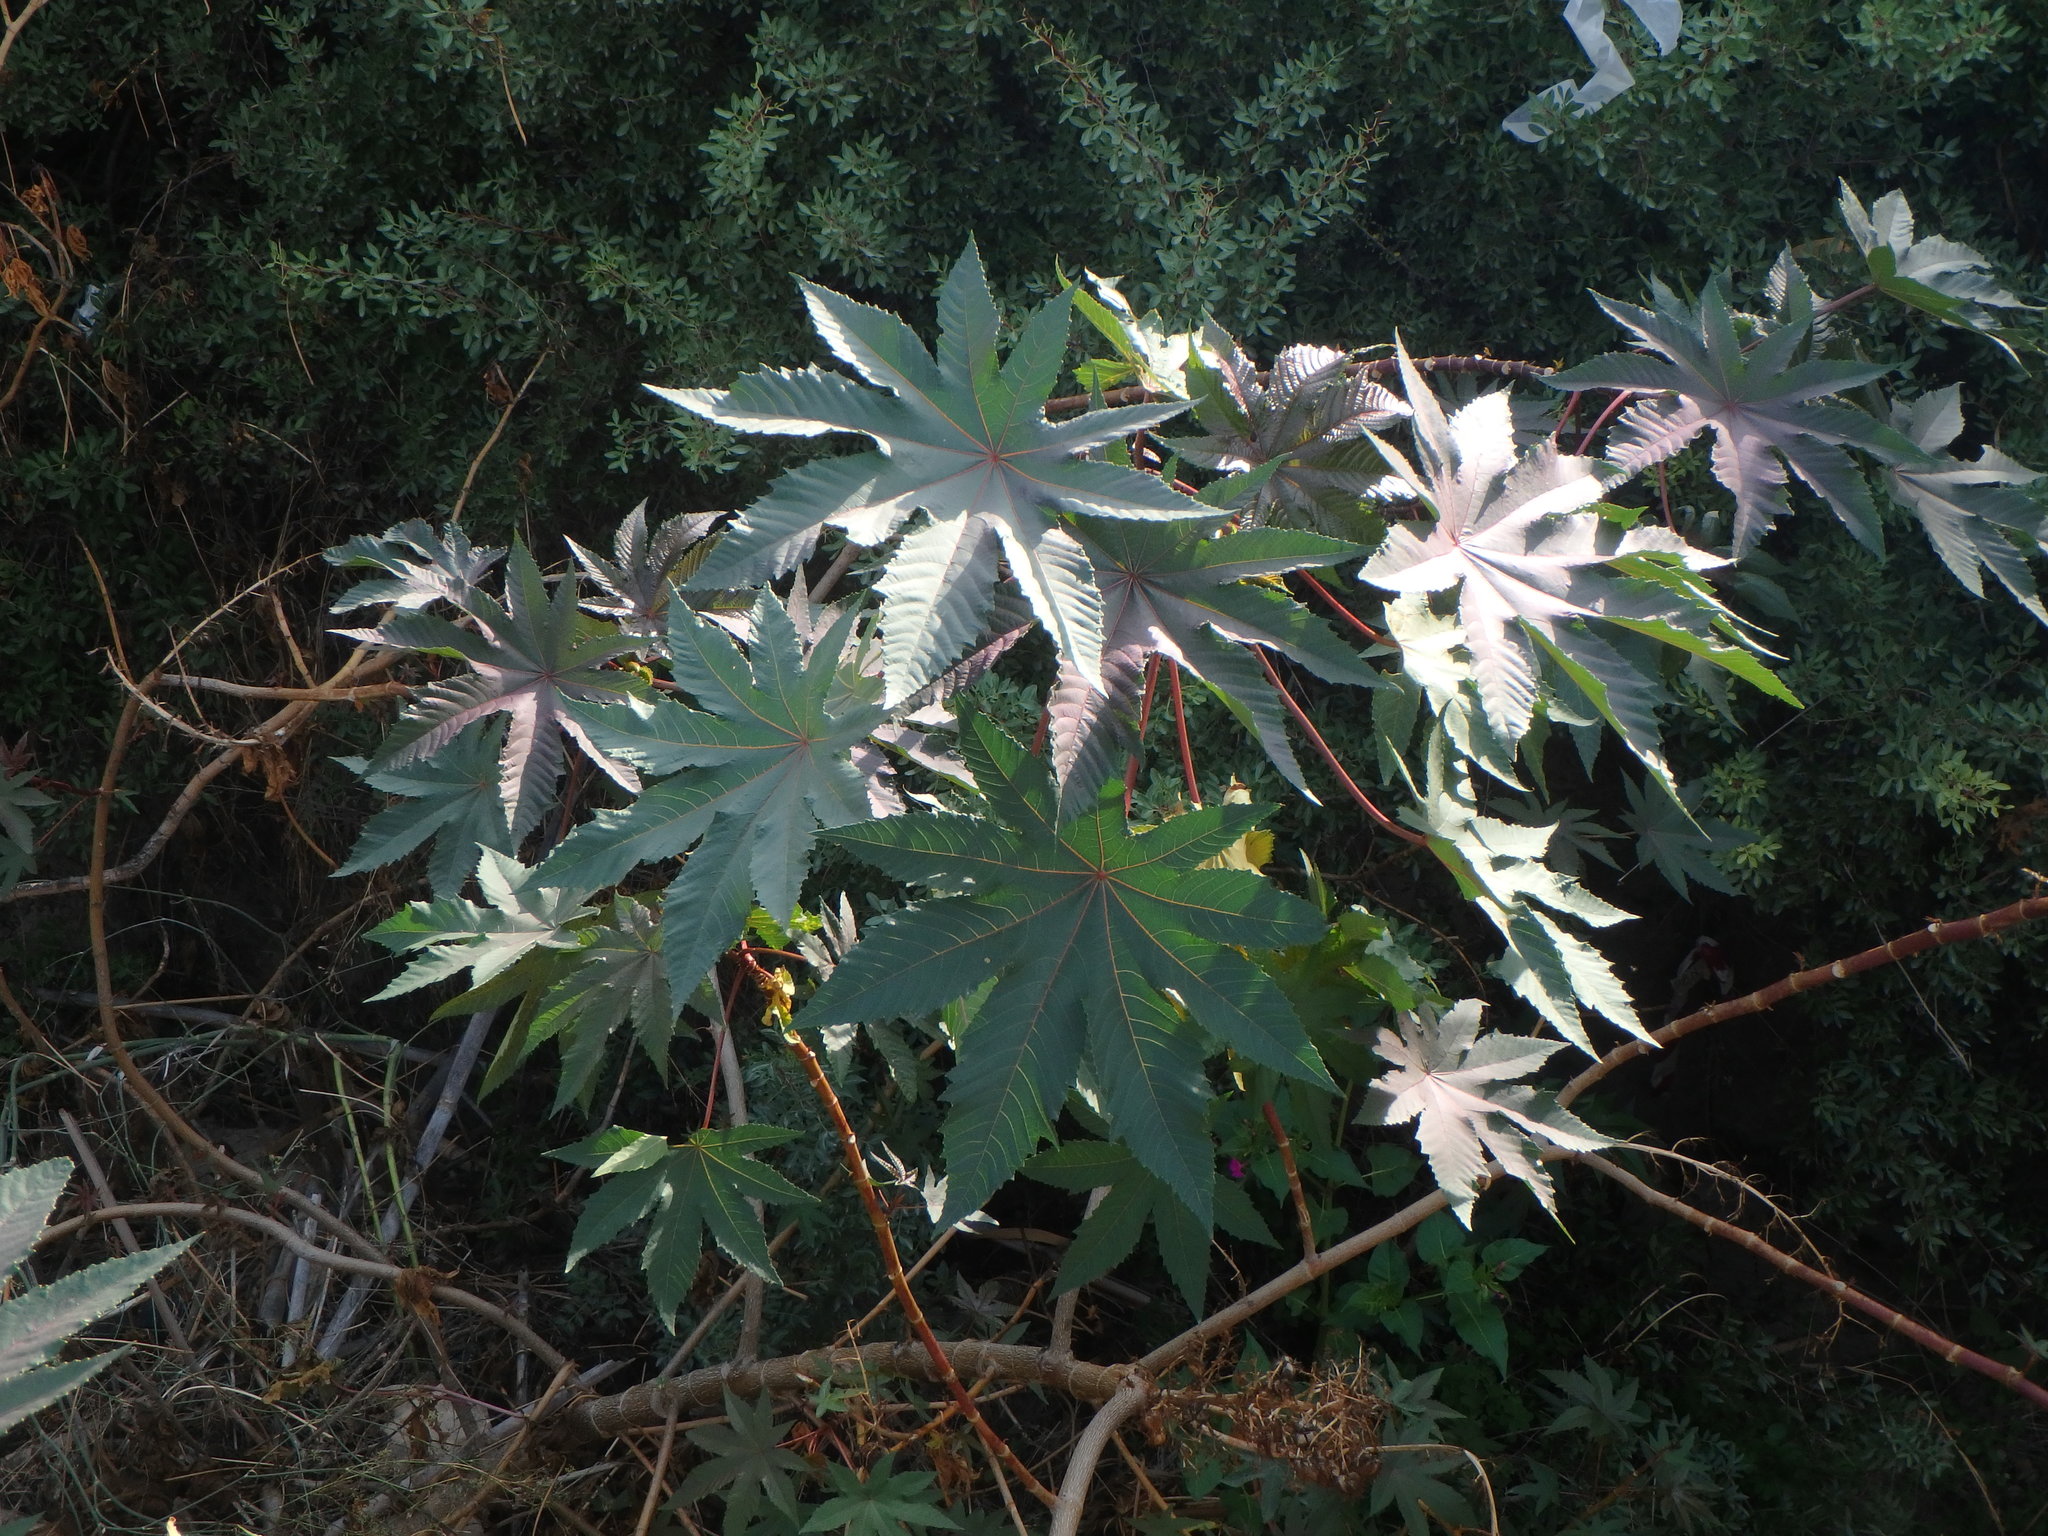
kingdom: Plantae
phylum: Tracheophyta
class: Magnoliopsida
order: Malpighiales
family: Euphorbiaceae
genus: Ricinus
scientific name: Ricinus communis
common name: Castor-oil-plant
